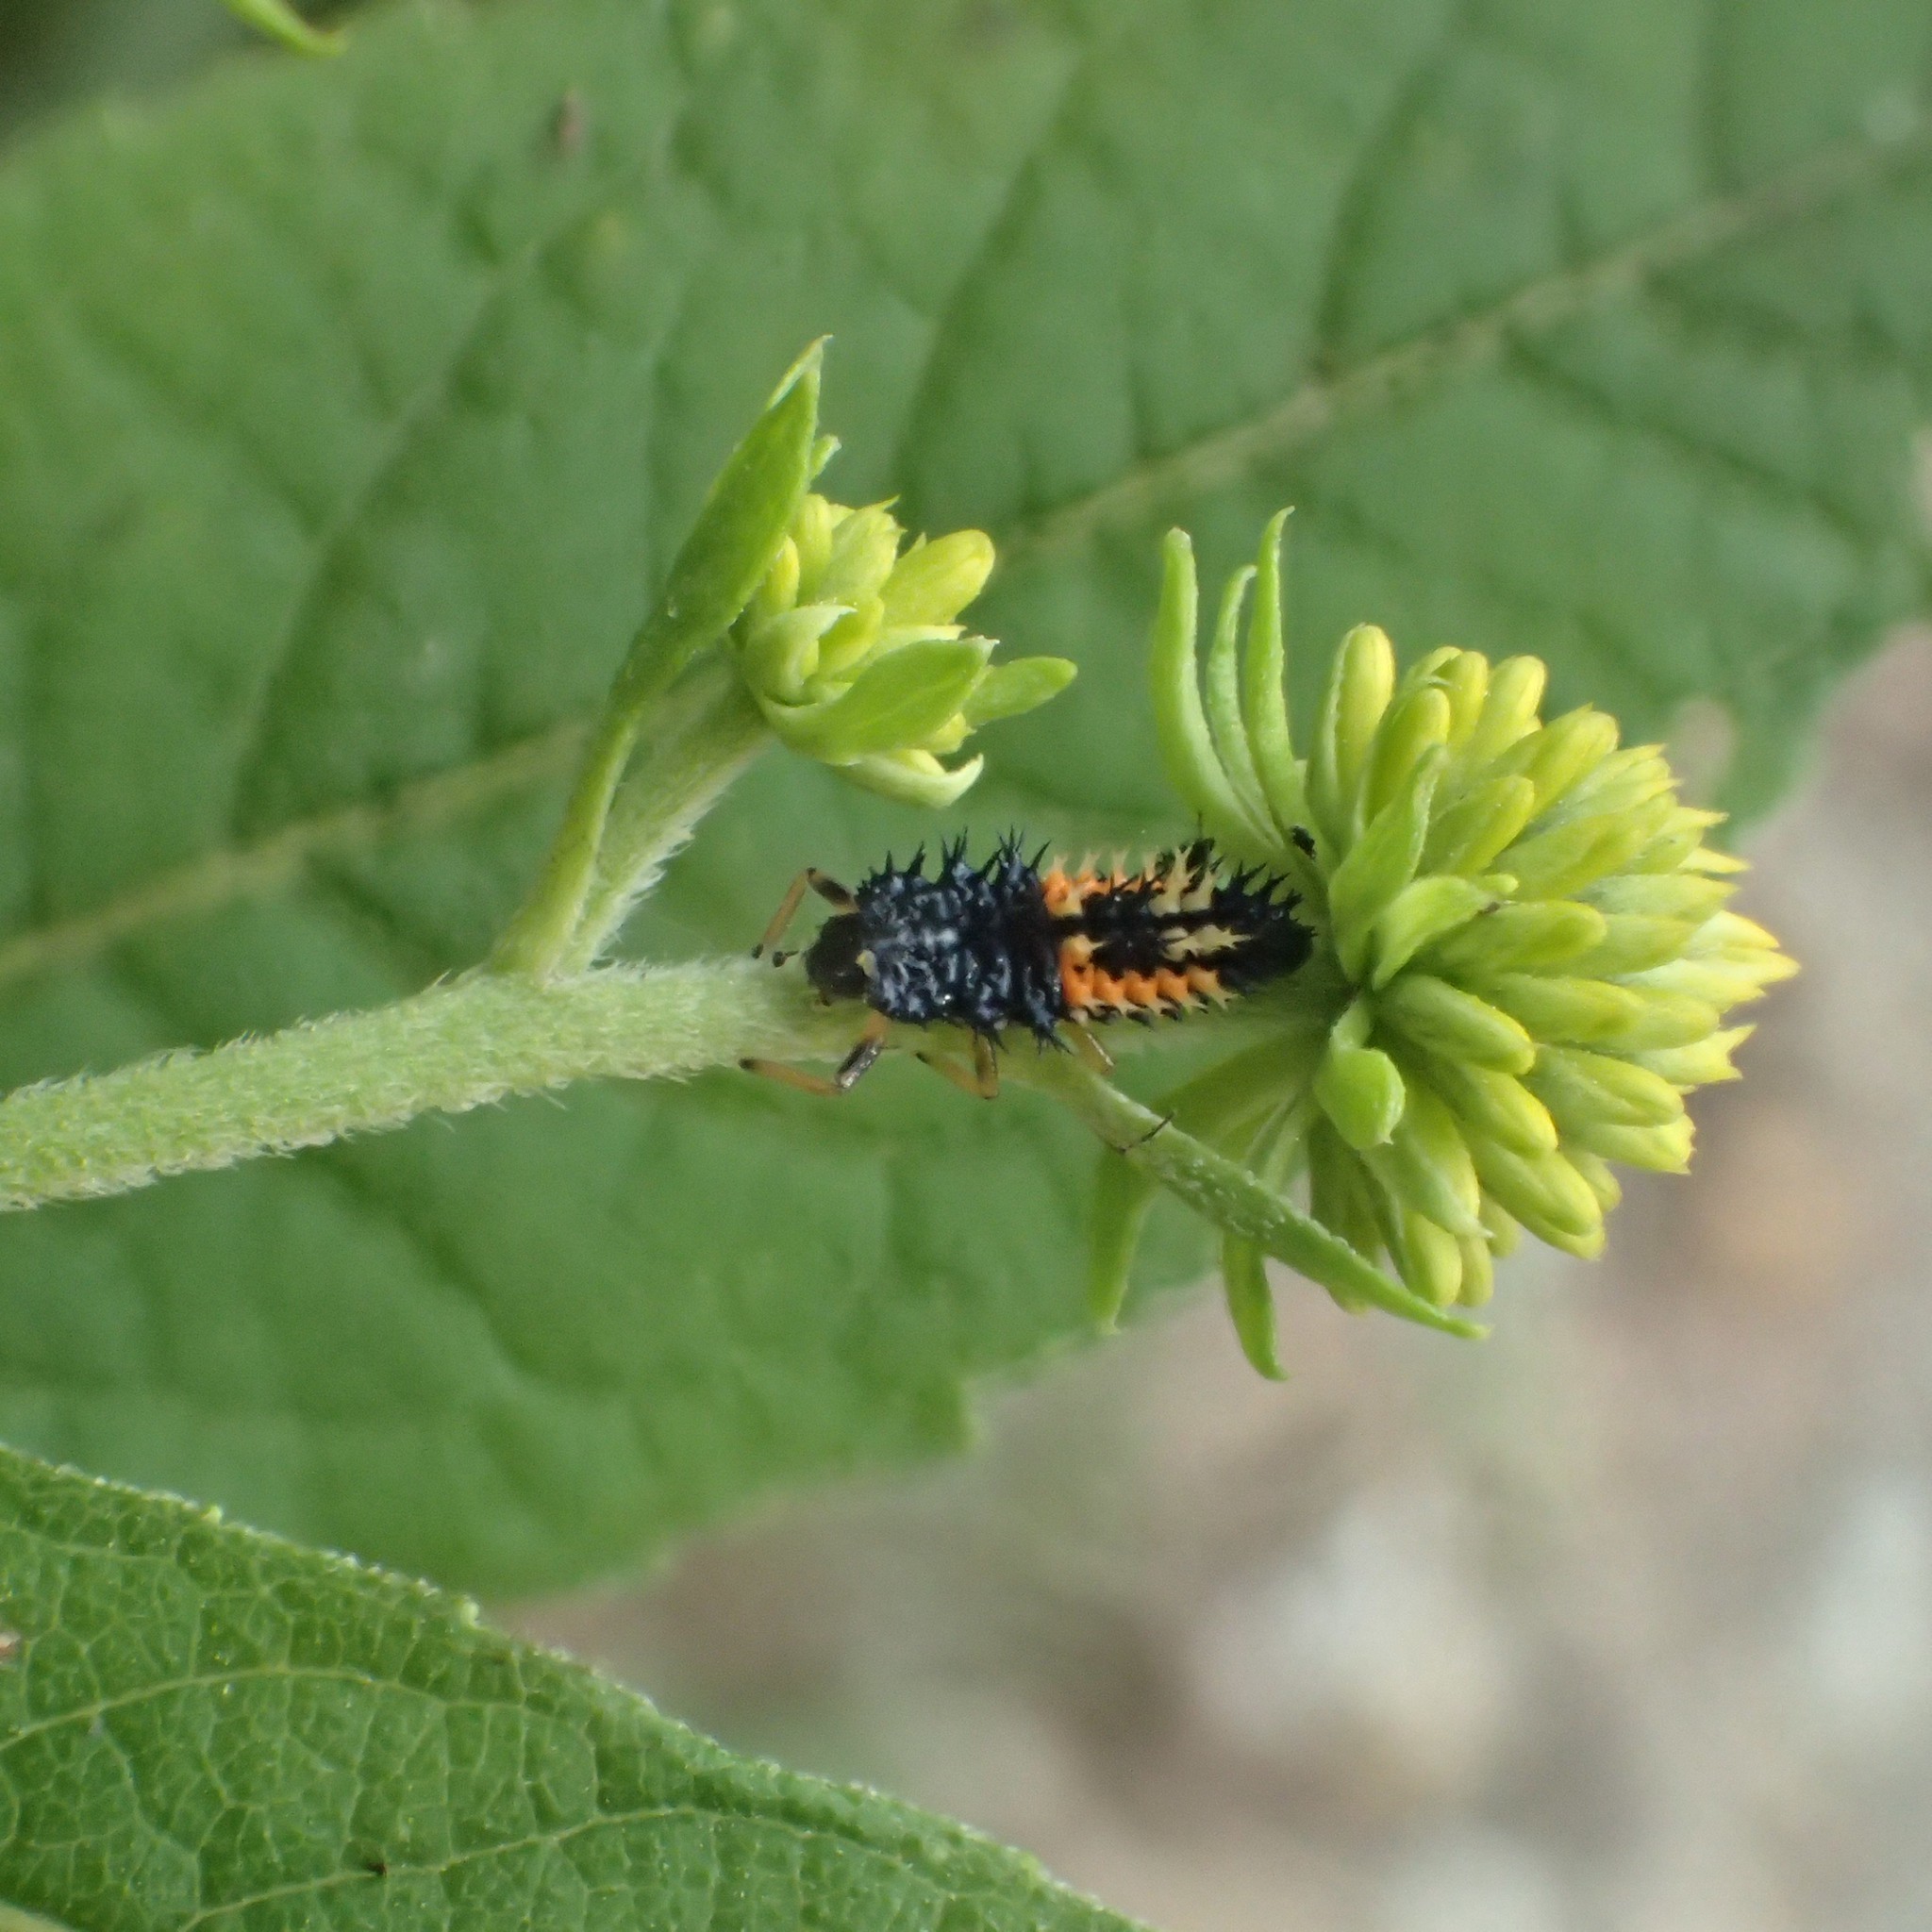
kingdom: Animalia
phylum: Arthropoda
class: Insecta
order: Coleoptera
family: Coccinellidae
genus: Harmonia
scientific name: Harmonia axyridis
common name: Harlequin ladybird
